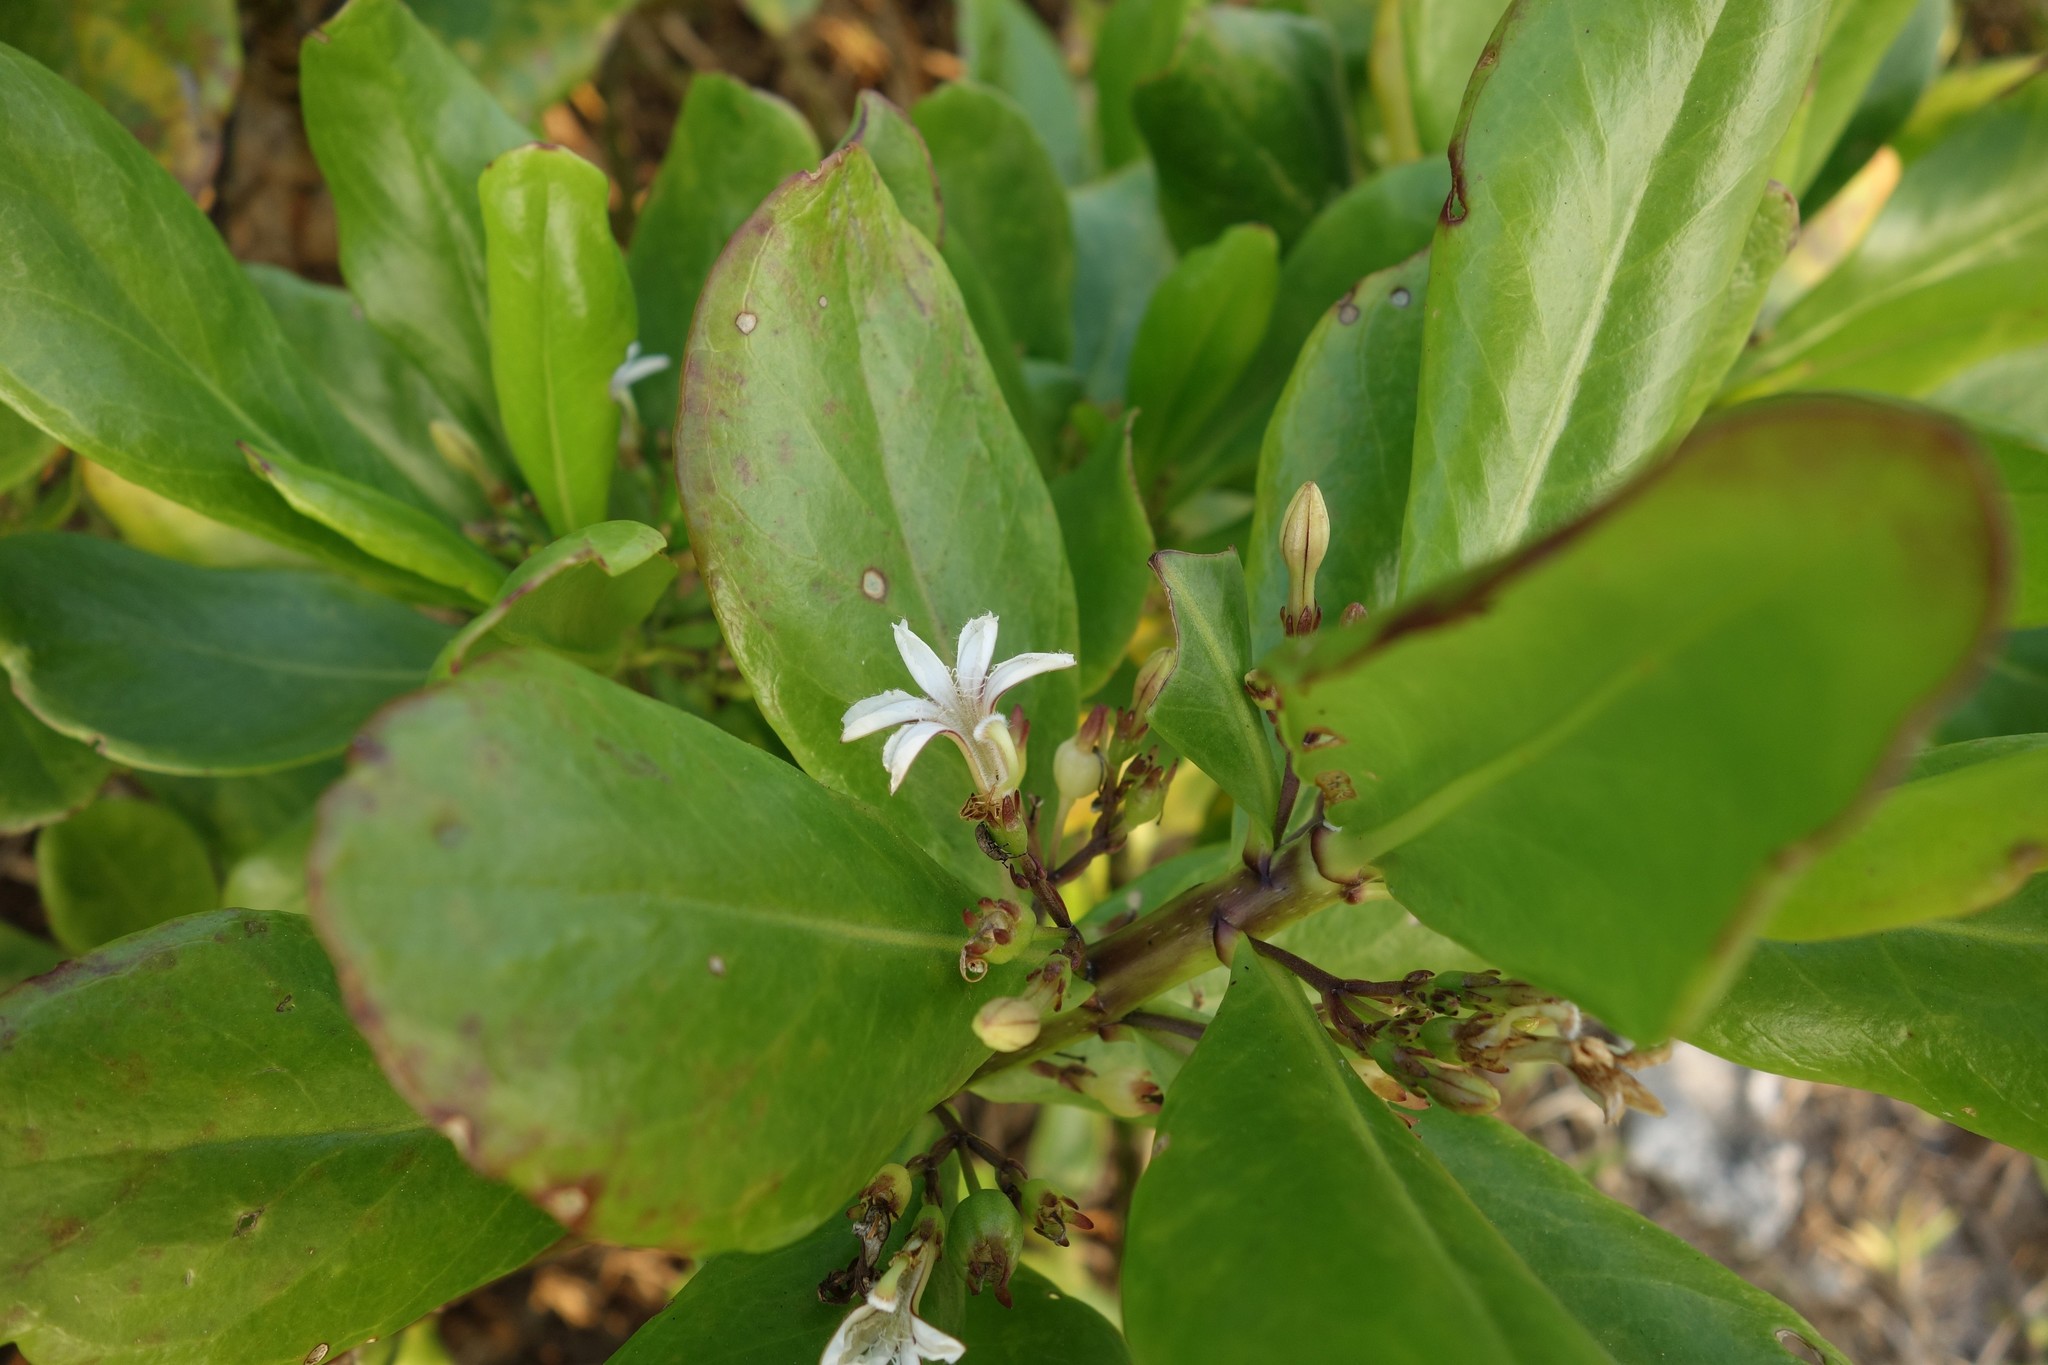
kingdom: Plantae
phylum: Tracheophyta
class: Magnoliopsida
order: Asterales
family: Goodeniaceae
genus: Scaevola
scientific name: Scaevola taccada
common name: Sea lettucetree
